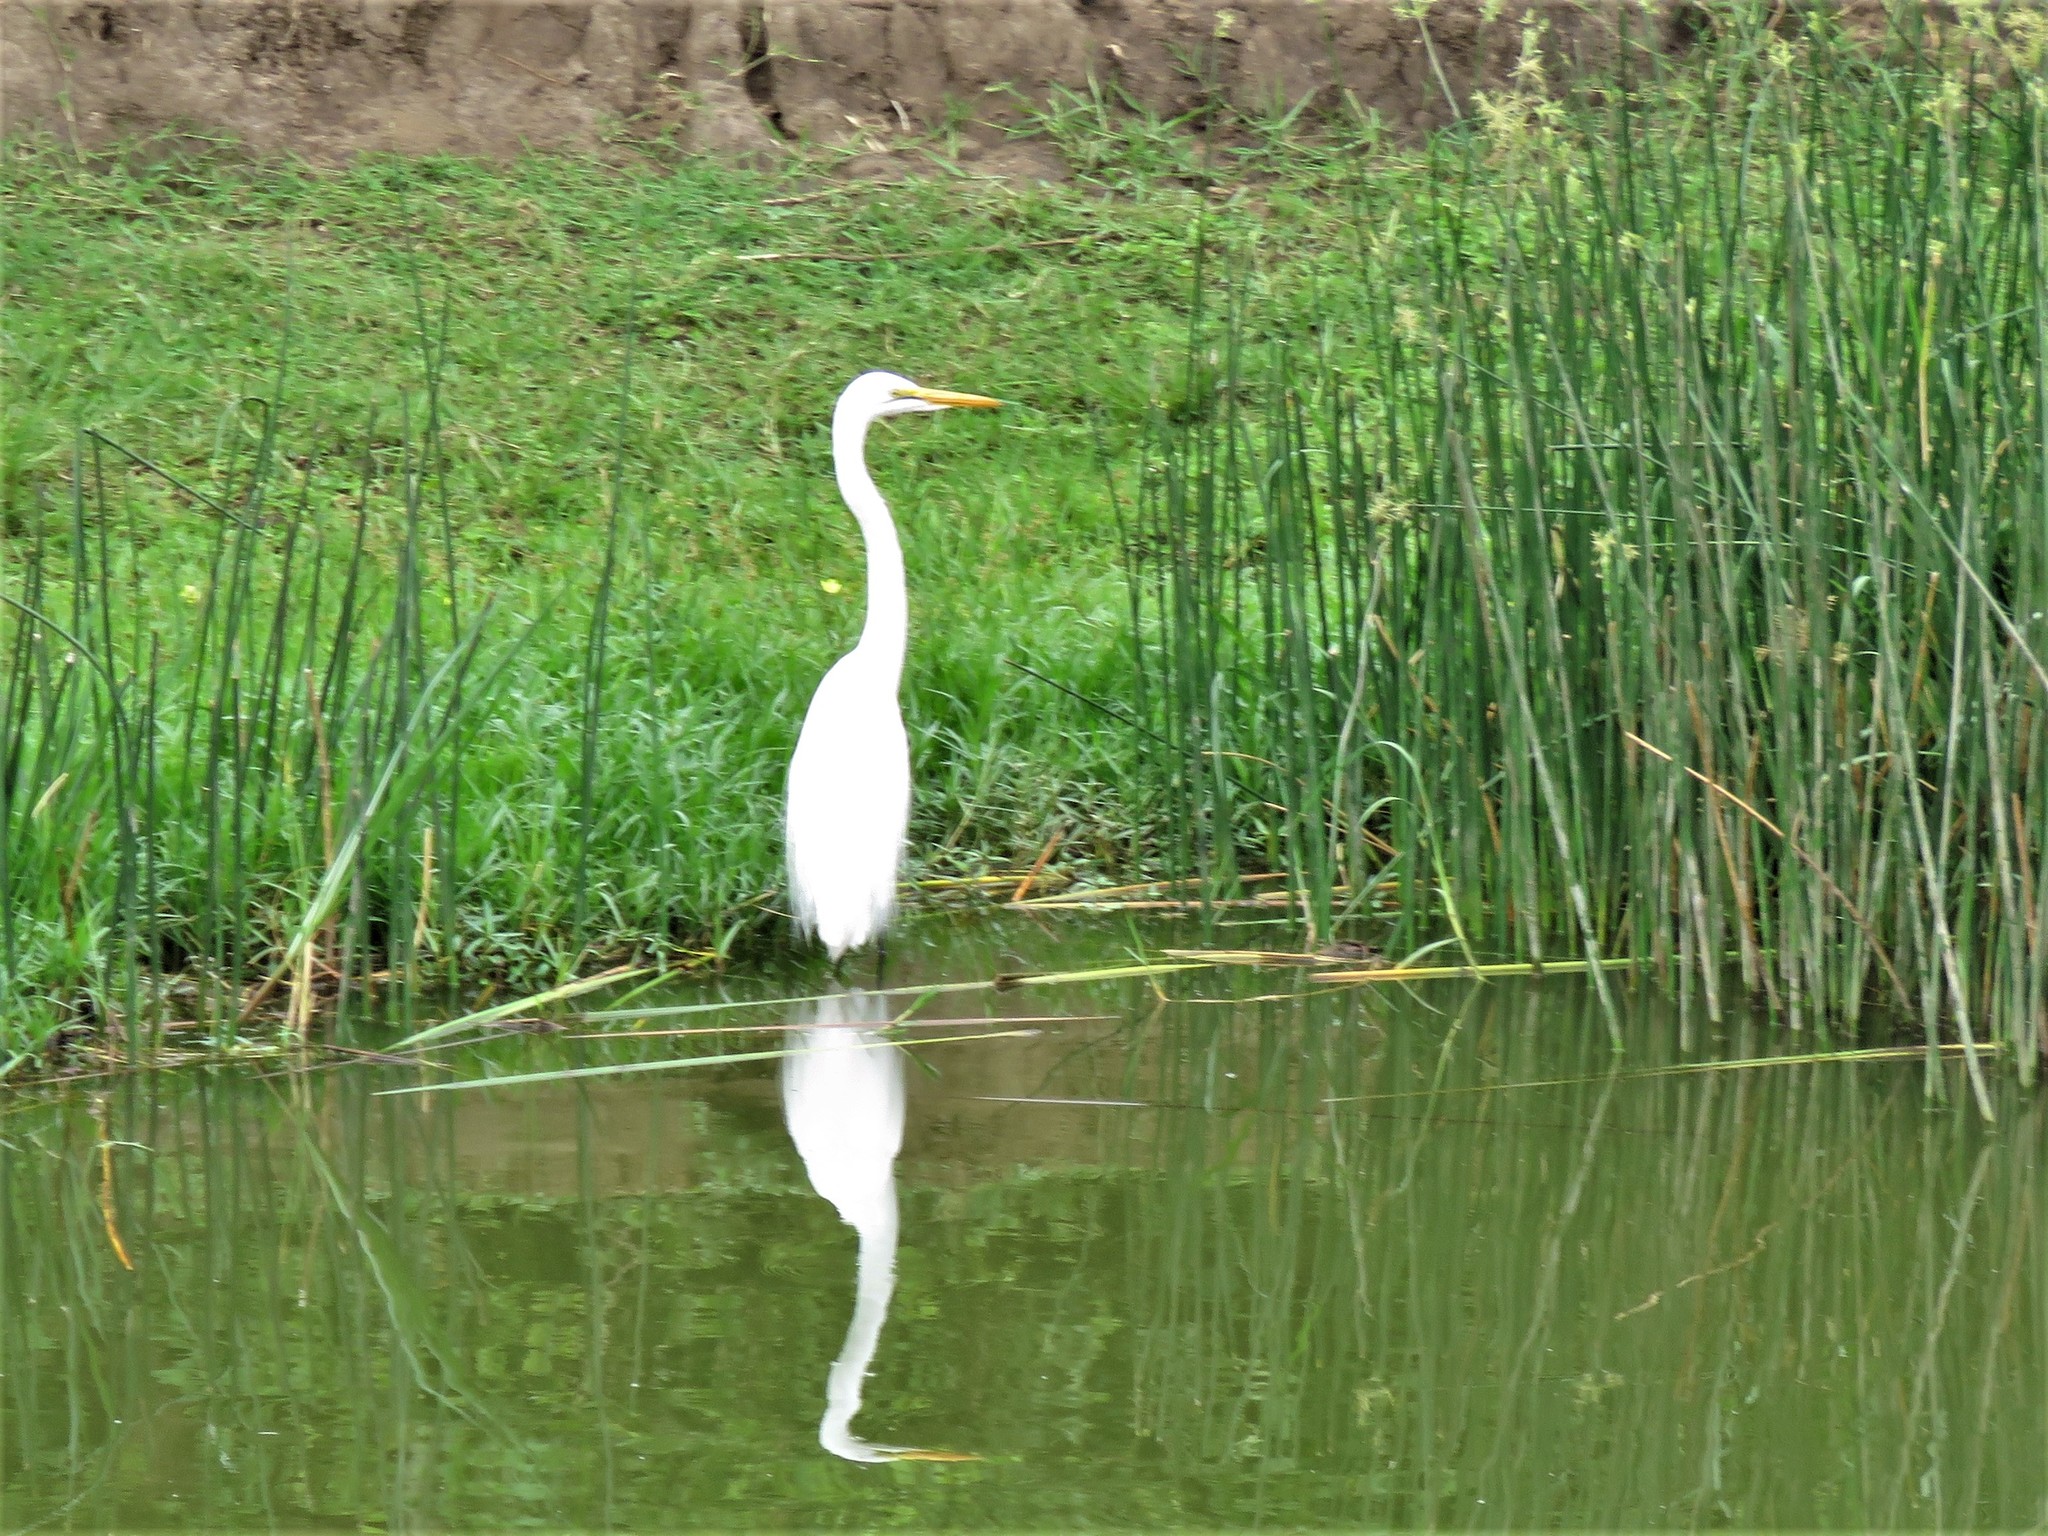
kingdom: Animalia
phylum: Chordata
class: Aves
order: Pelecaniformes
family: Ardeidae
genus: Ardea
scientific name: Ardea alba
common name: Great egret
